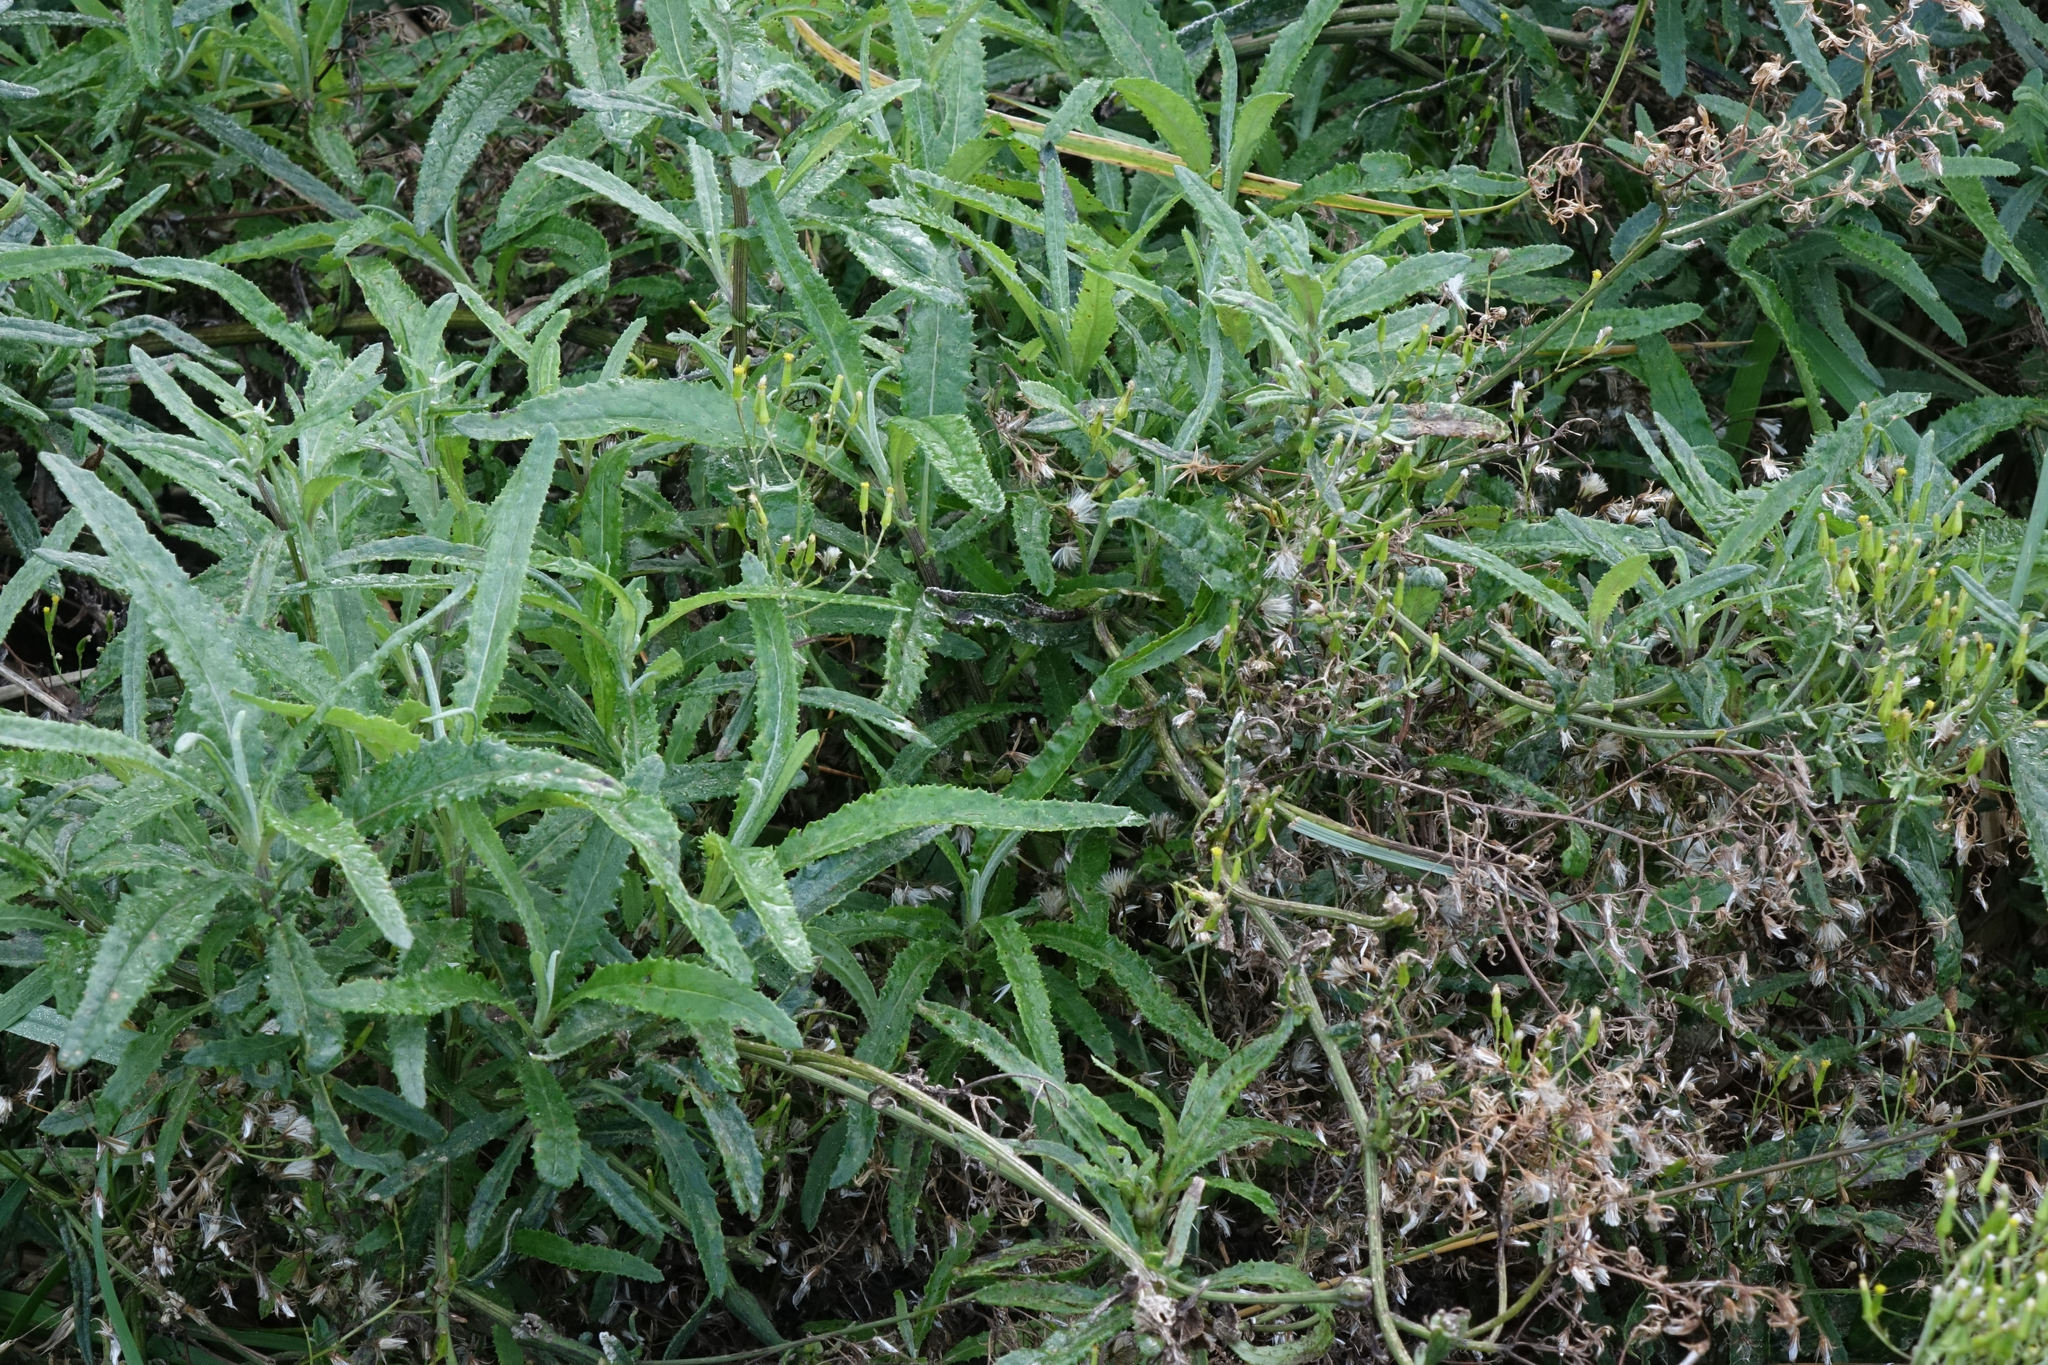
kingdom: Plantae
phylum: Tracheophyta
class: Magnoliopsida
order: Asterales
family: Asteraceae
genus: Senecio
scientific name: Senecio minimus
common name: Toothed fireweed
